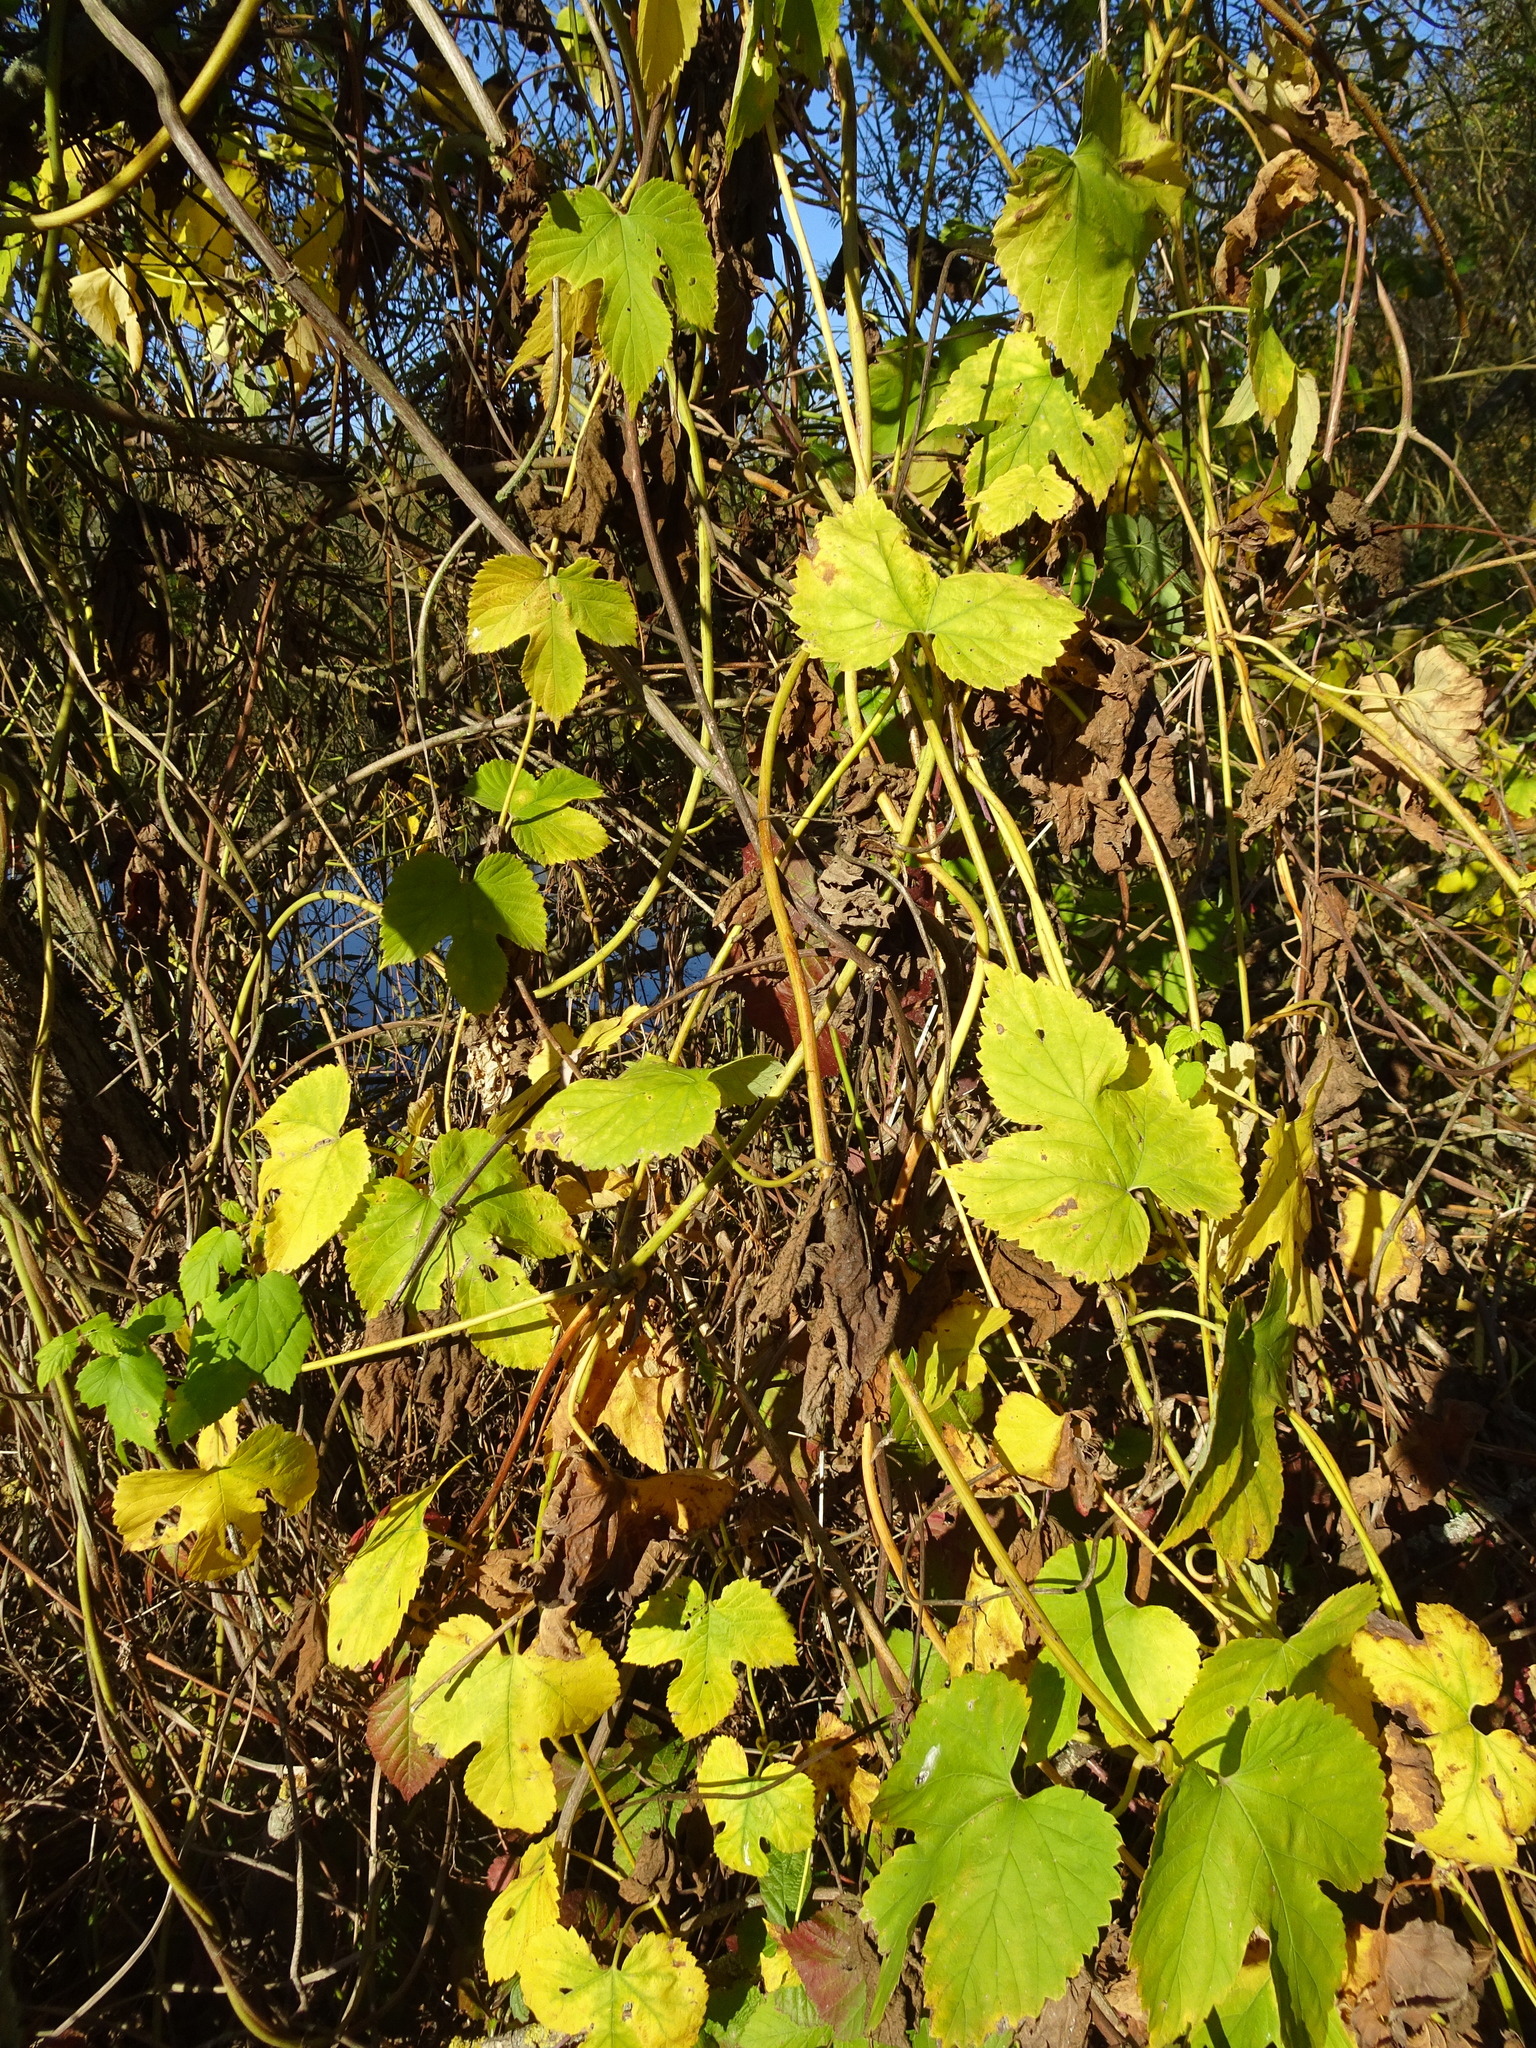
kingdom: Plantae
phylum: Tracheophyta
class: Magnoliopsida
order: Rosales
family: Cannabaceae
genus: Humulus
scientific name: Humulus lupulus
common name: Hop
